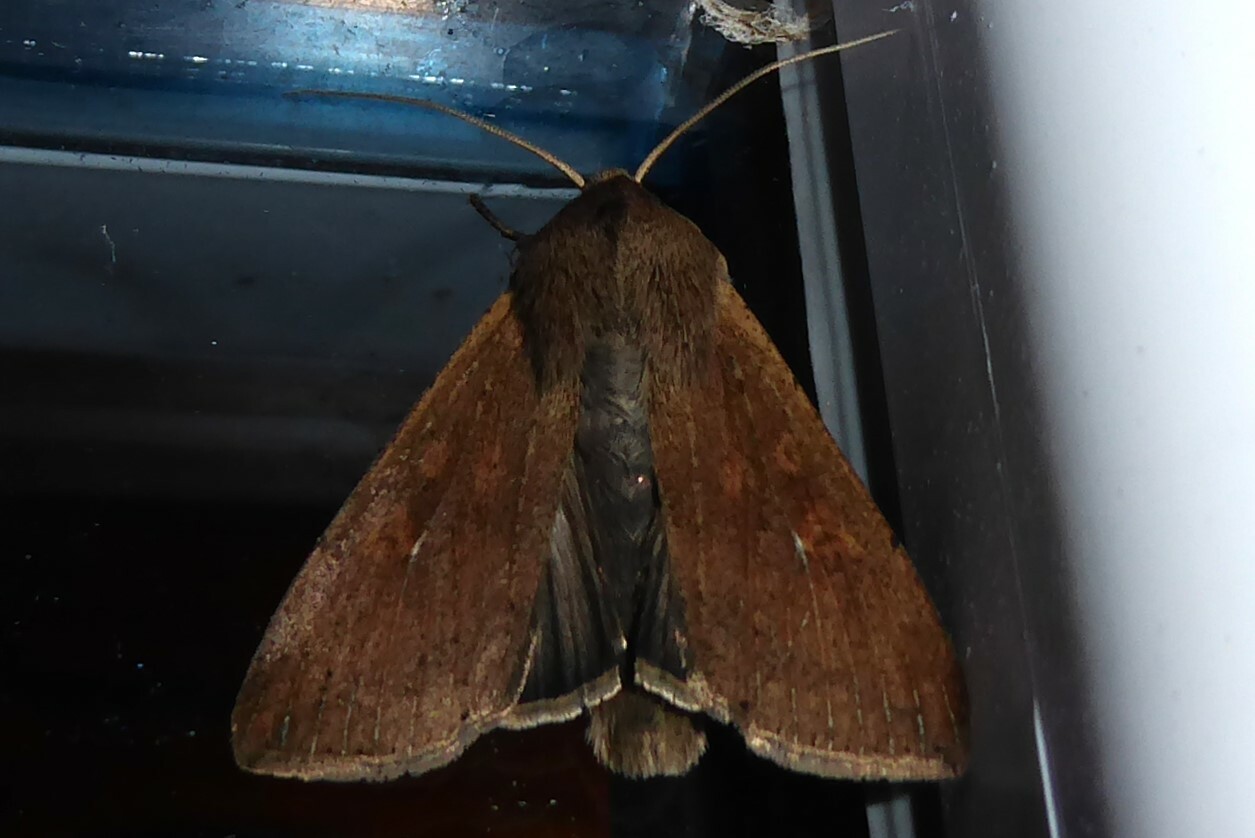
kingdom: Animalia
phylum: Arthropoda
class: Insecta
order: Lepidoptera
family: Noctuidae
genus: Mythimna
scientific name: Mythimna separata
